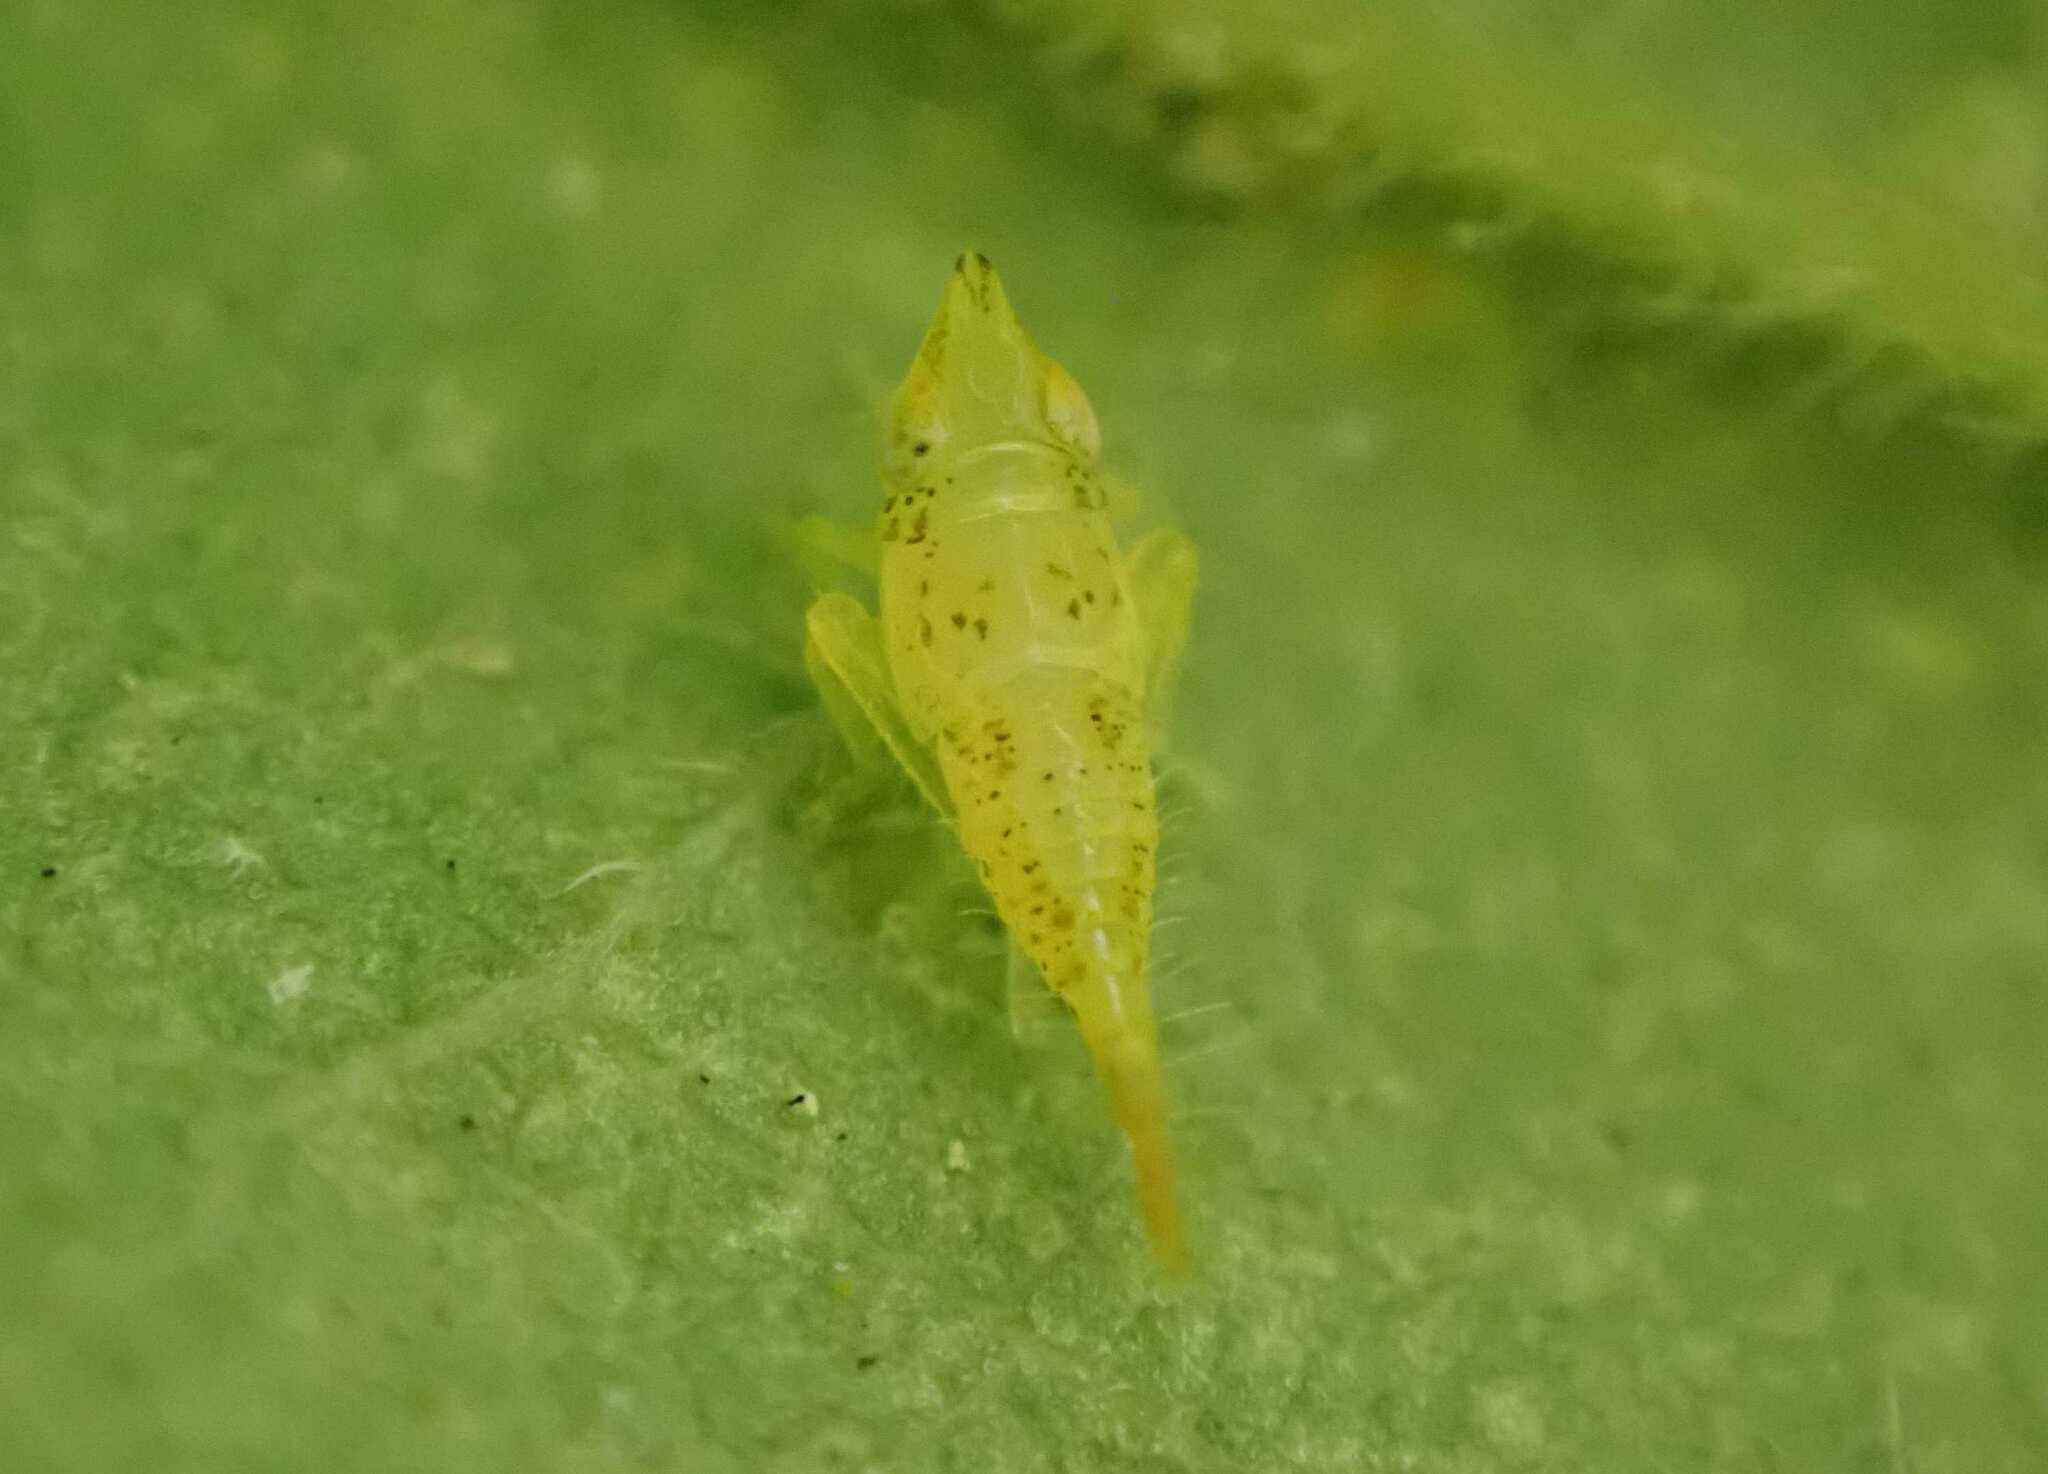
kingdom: Animalia
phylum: Arthropoda
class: Insecta
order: Hemiptera
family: Cicadellidae
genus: Japananus
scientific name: Japananus hyalinus
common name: The japanese maple leafhopper
